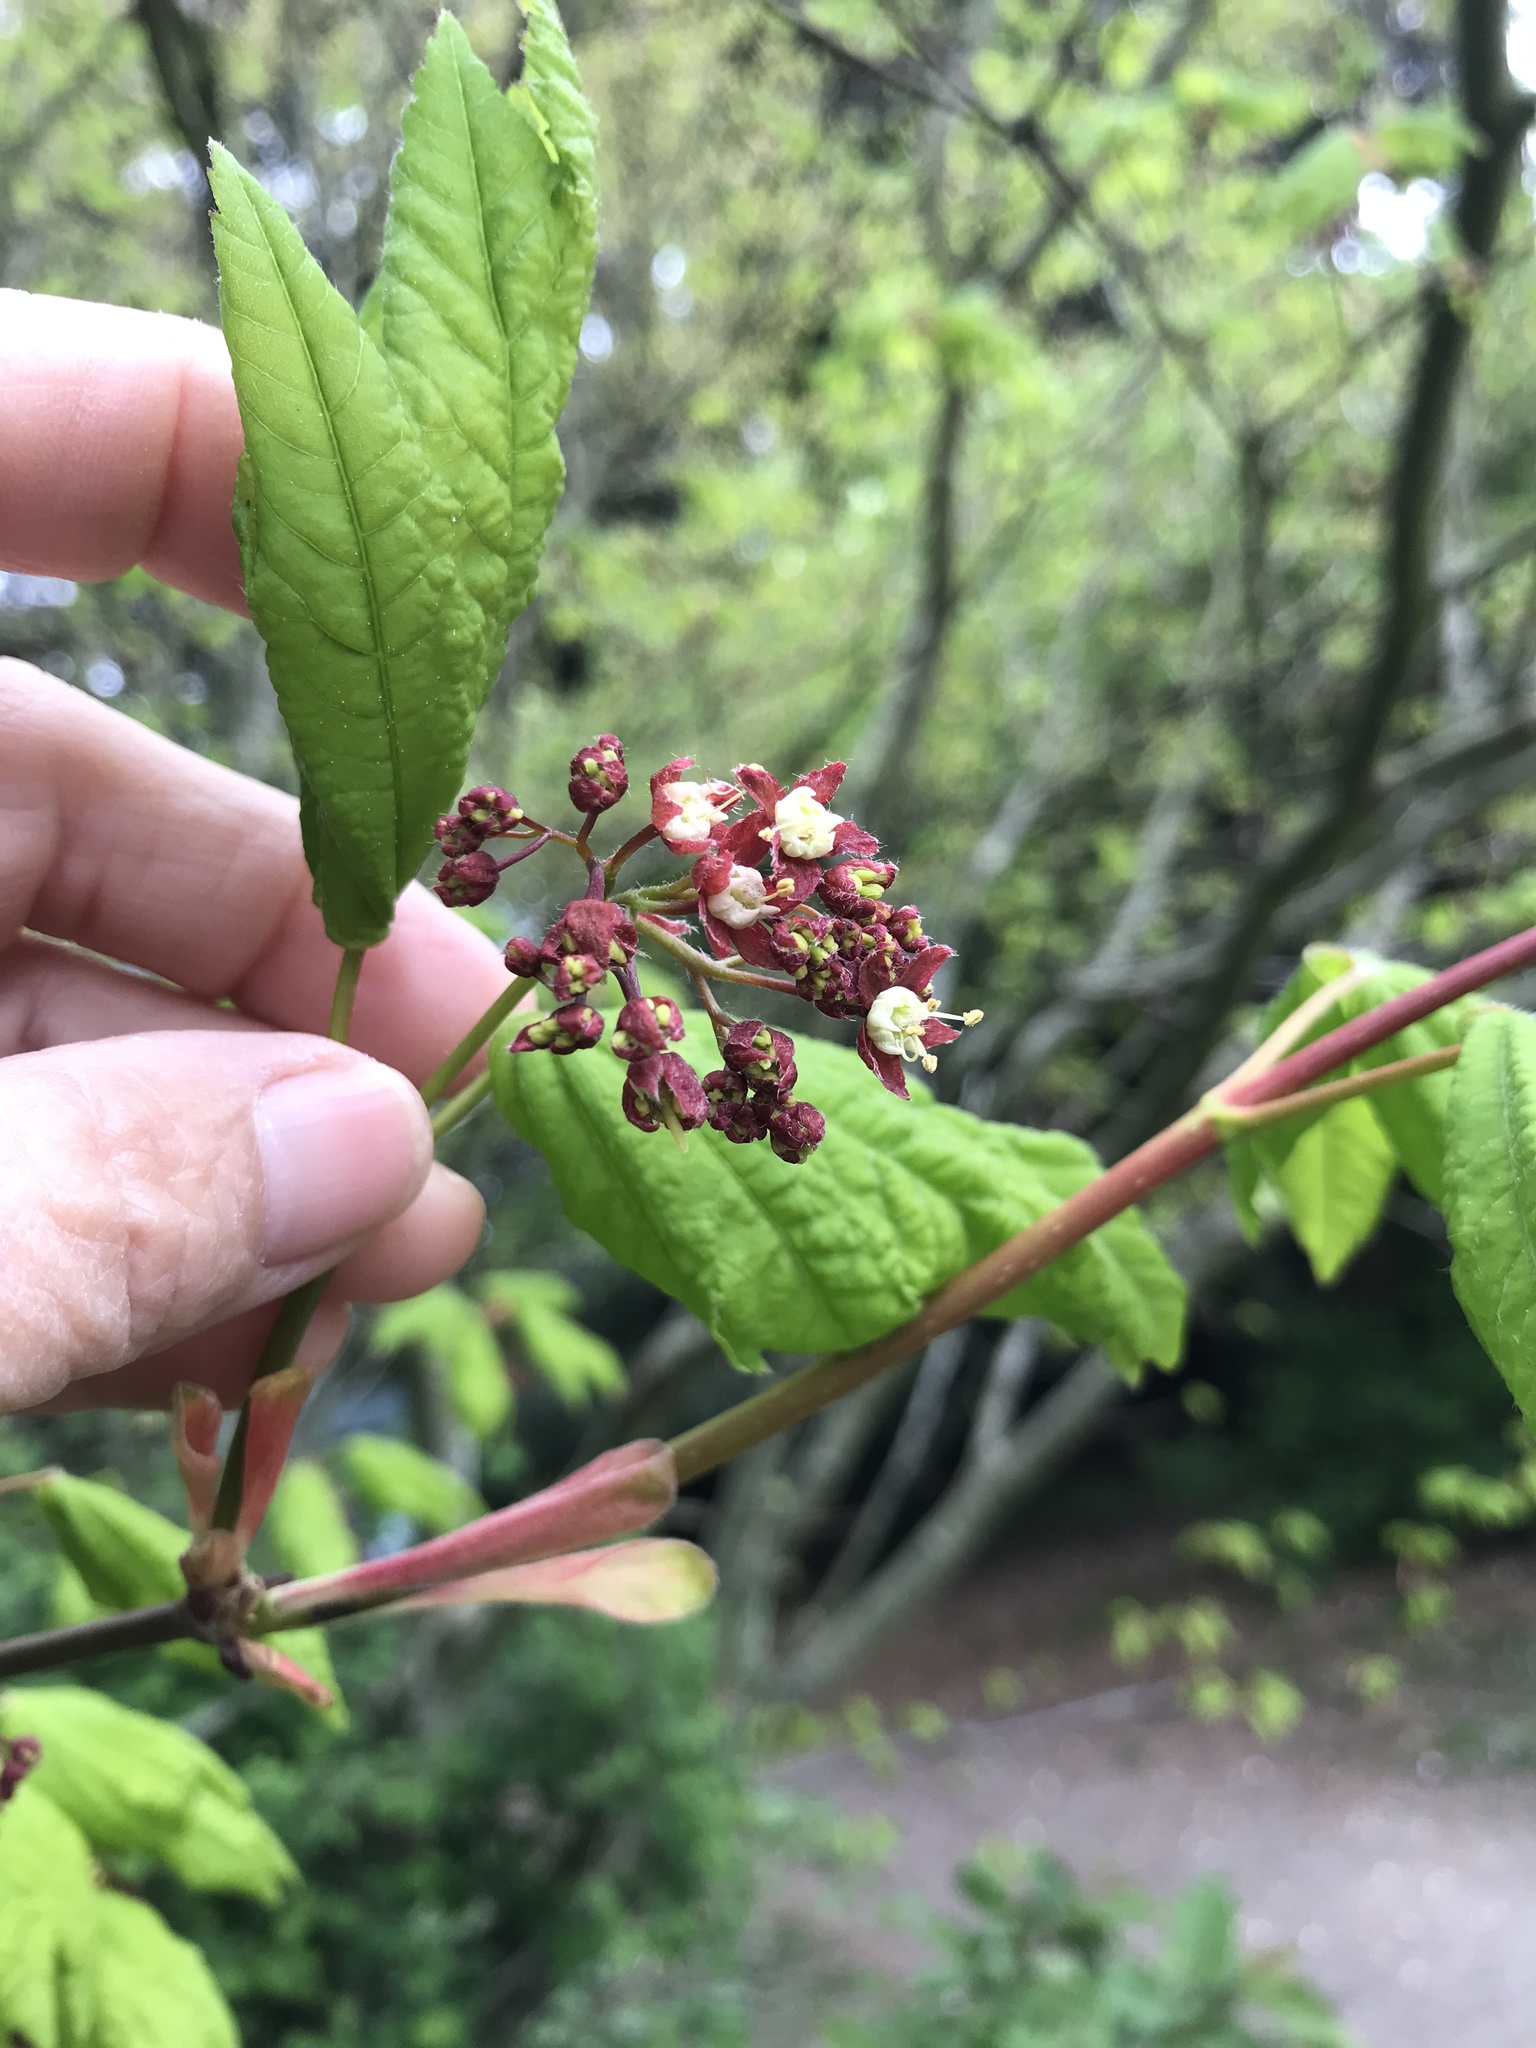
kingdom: Plantae
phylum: Tracheophyta
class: Magnoliopsida
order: Sapindales
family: Sapindaceae
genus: Acer
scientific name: Acer circinatum
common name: Vine maple
